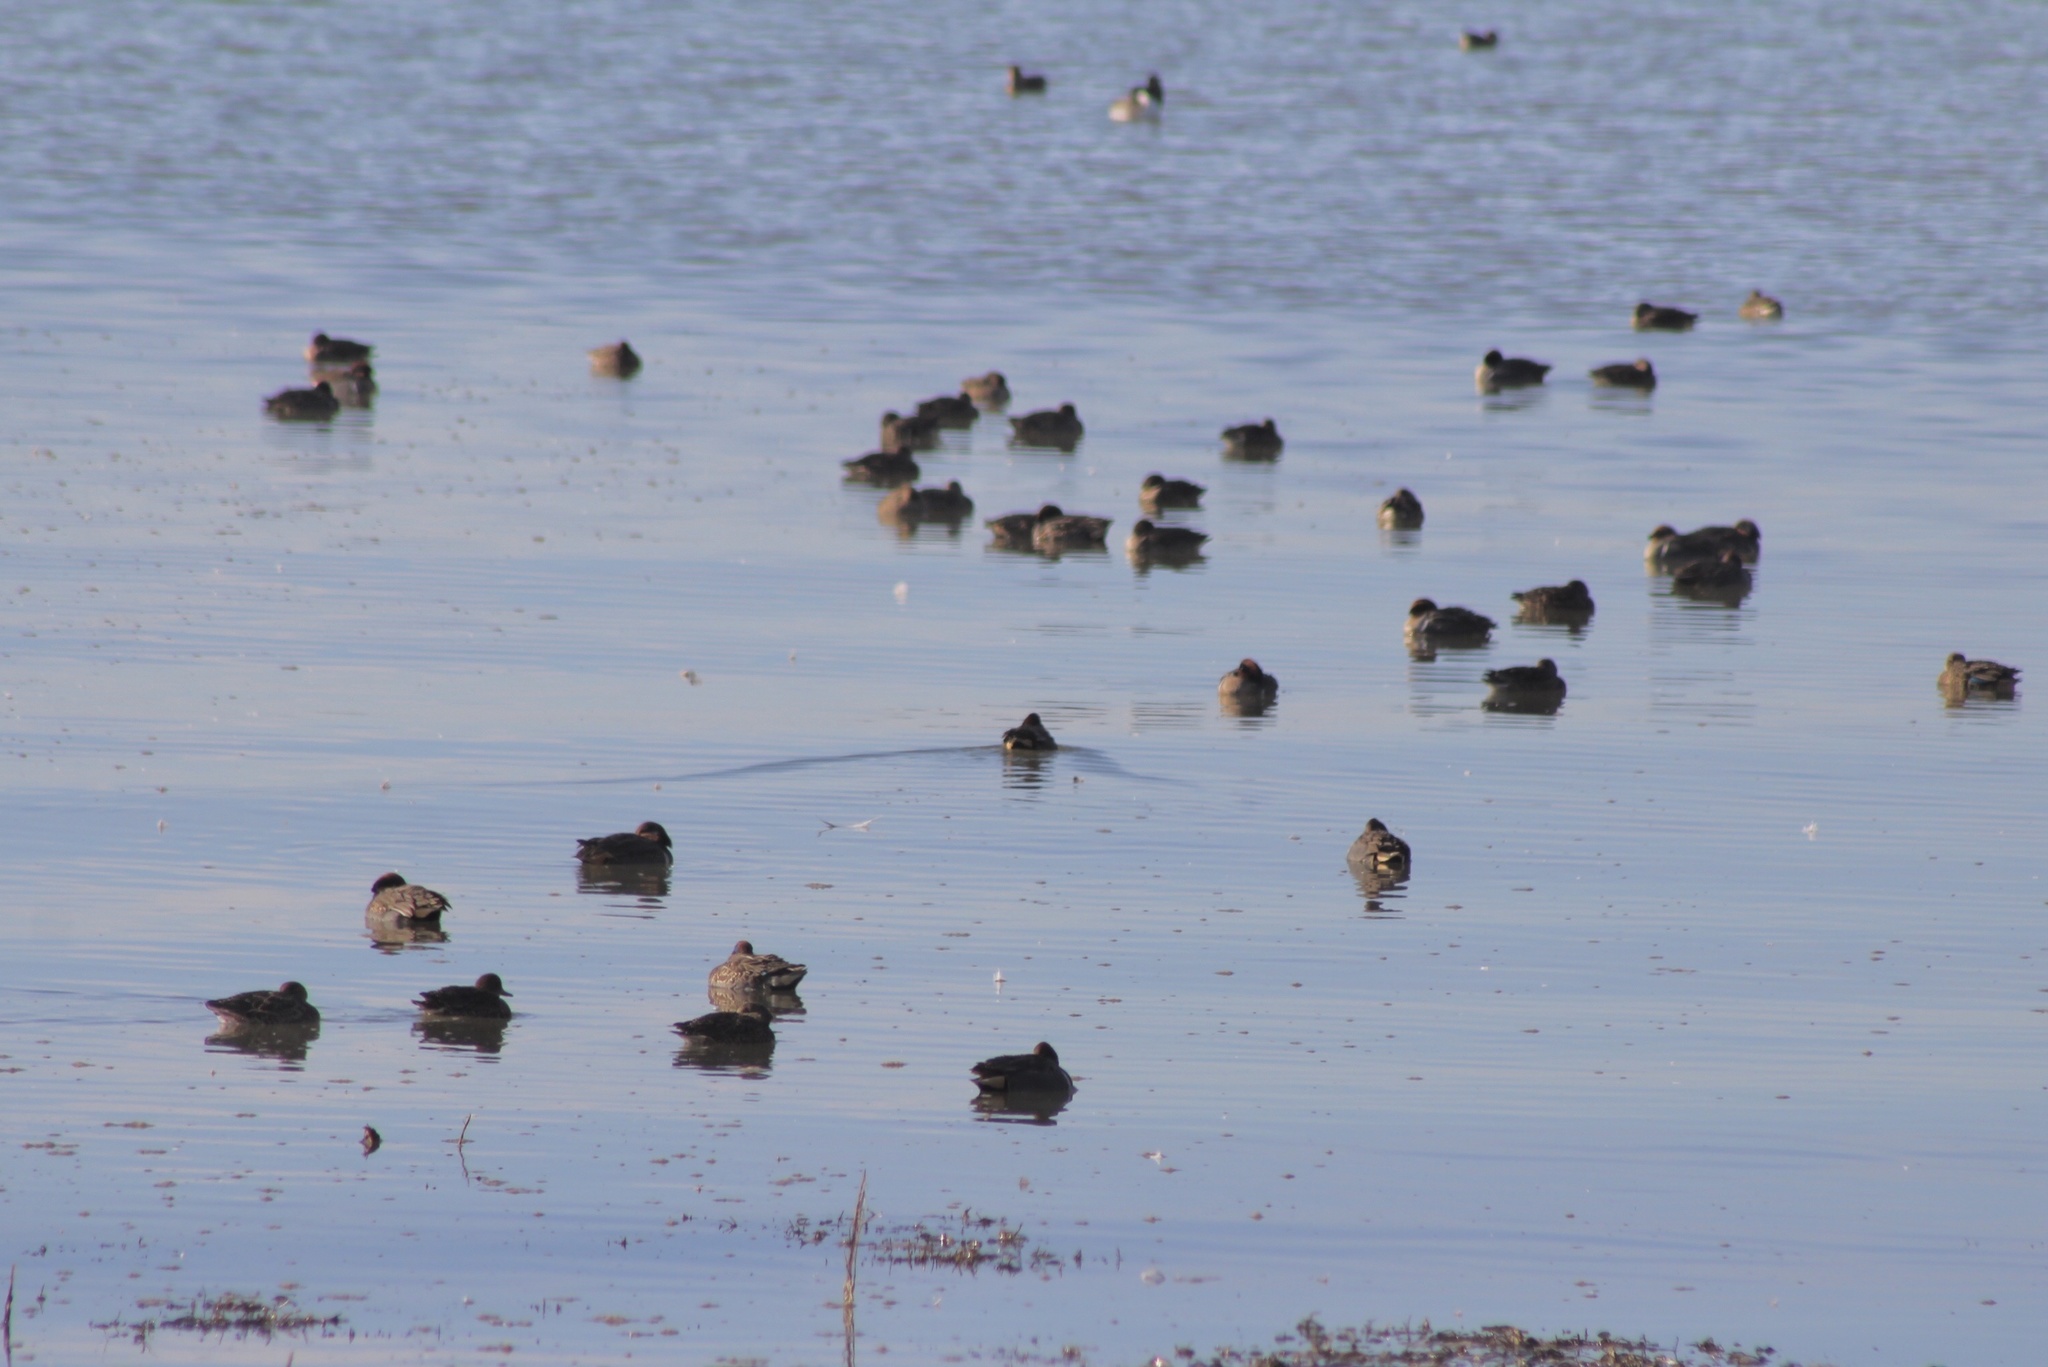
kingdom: Animalia
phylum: Chordata
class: Aves
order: Anseriformes
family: Anatidae
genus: Anas
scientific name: Anas carolinensis
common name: Green-winged teal
